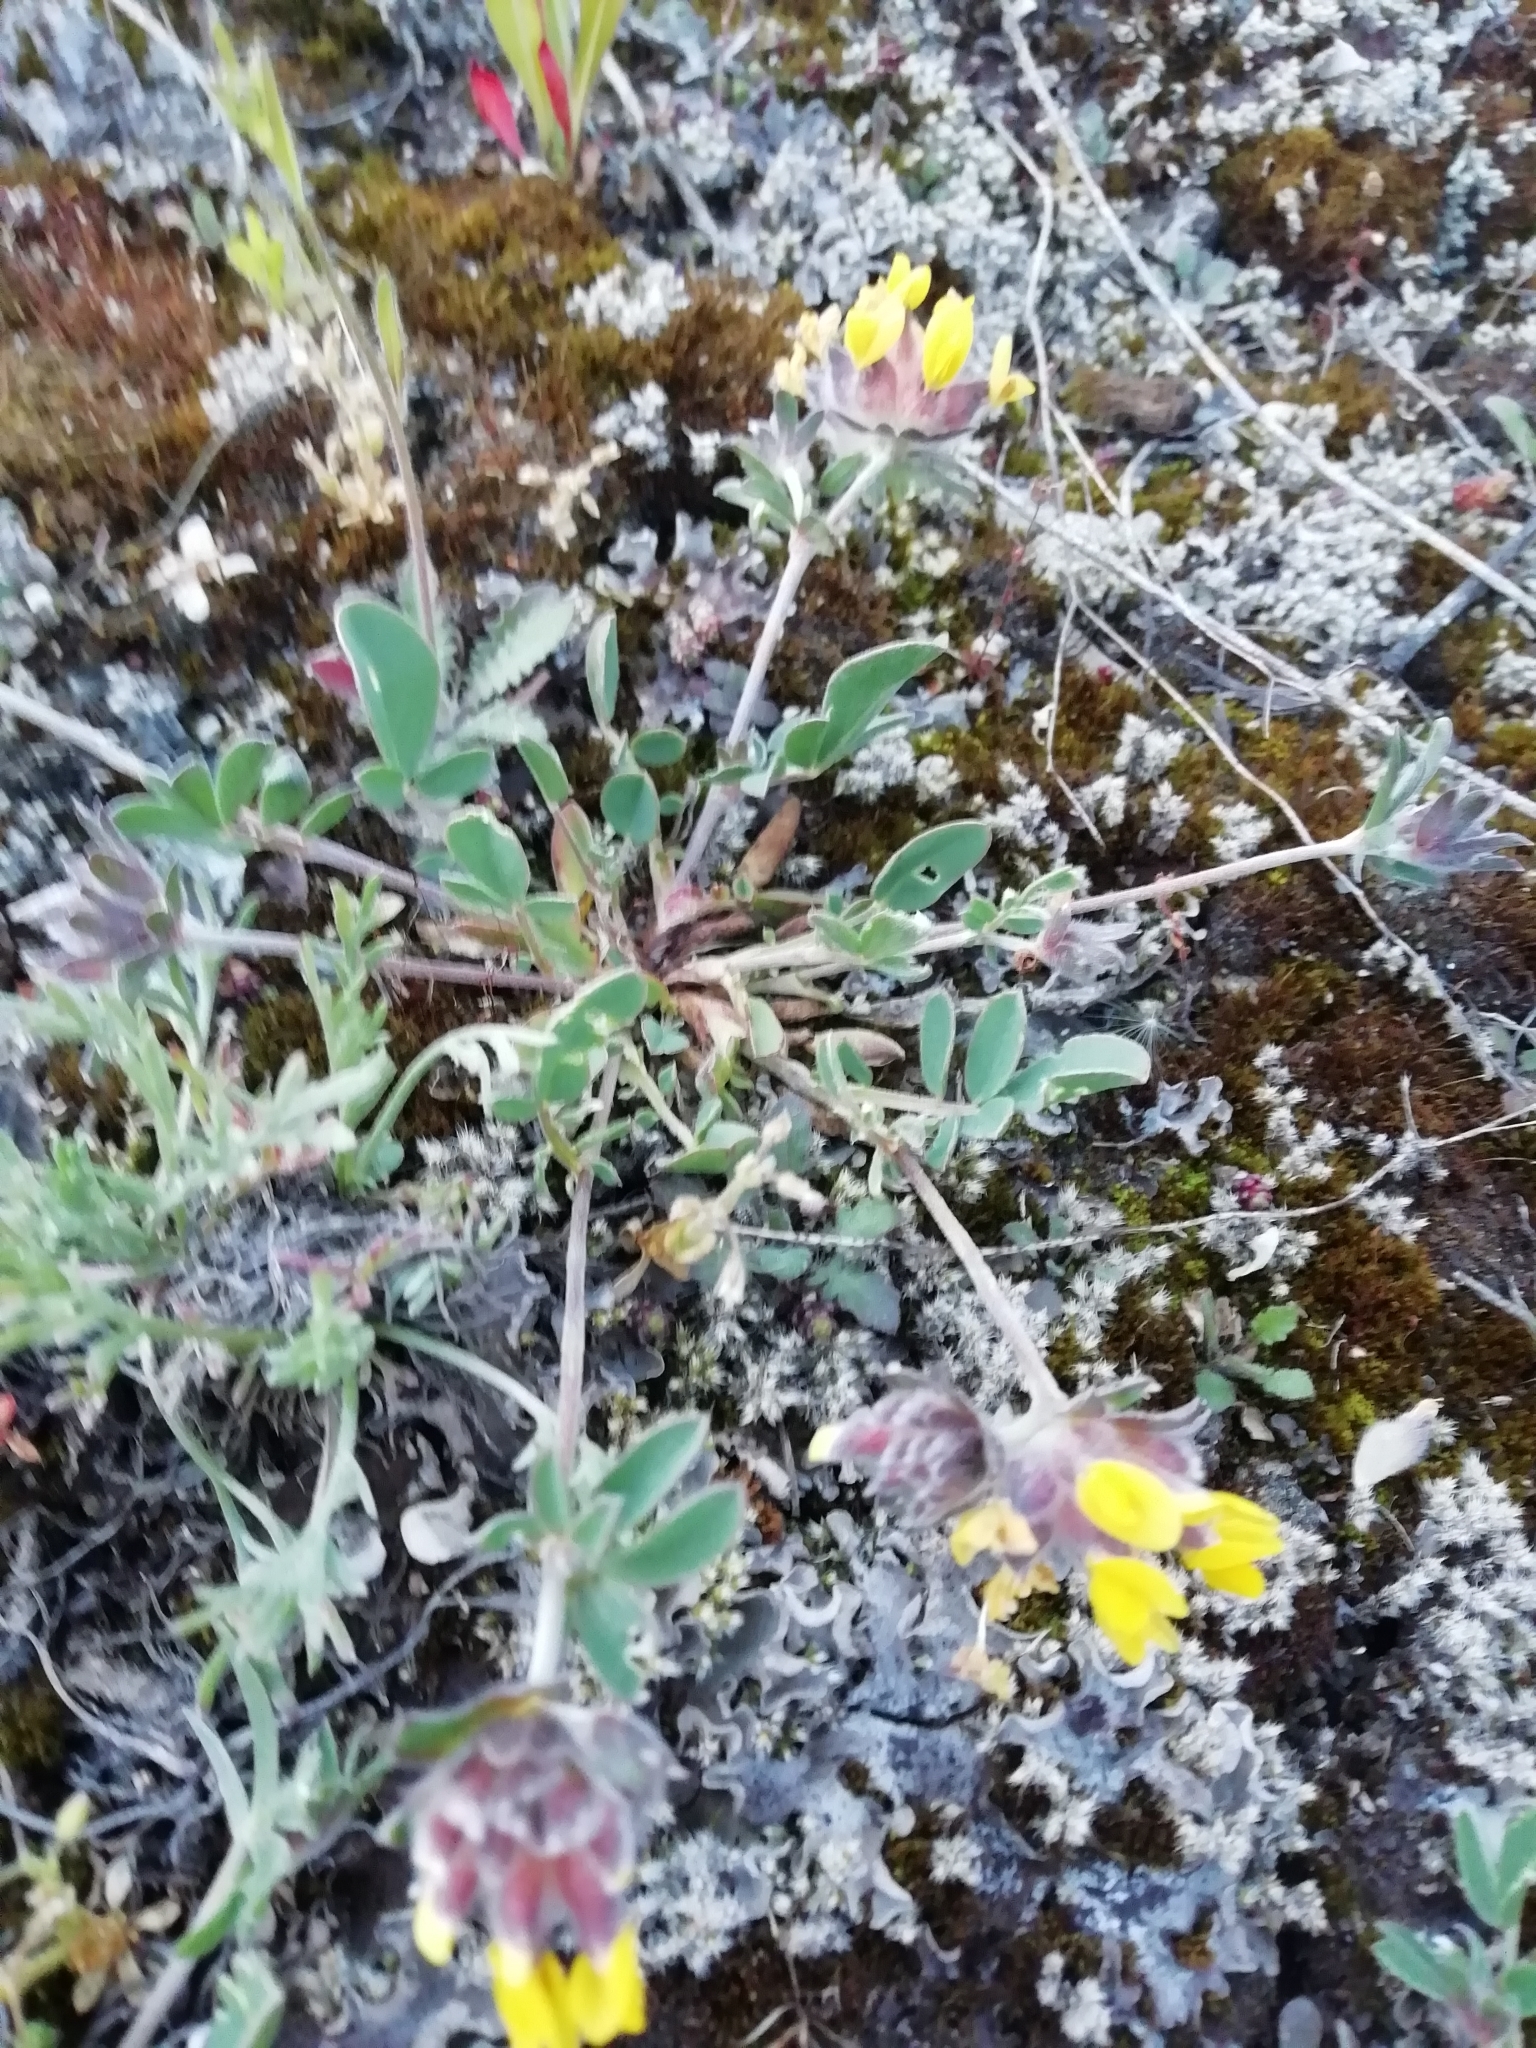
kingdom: Plantae
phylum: Tracheophyta
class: Magnoliopsida
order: Fabales
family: Fabaceae
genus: Anthyllis
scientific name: Anthyllis vulneraria
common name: Kidney vetch
